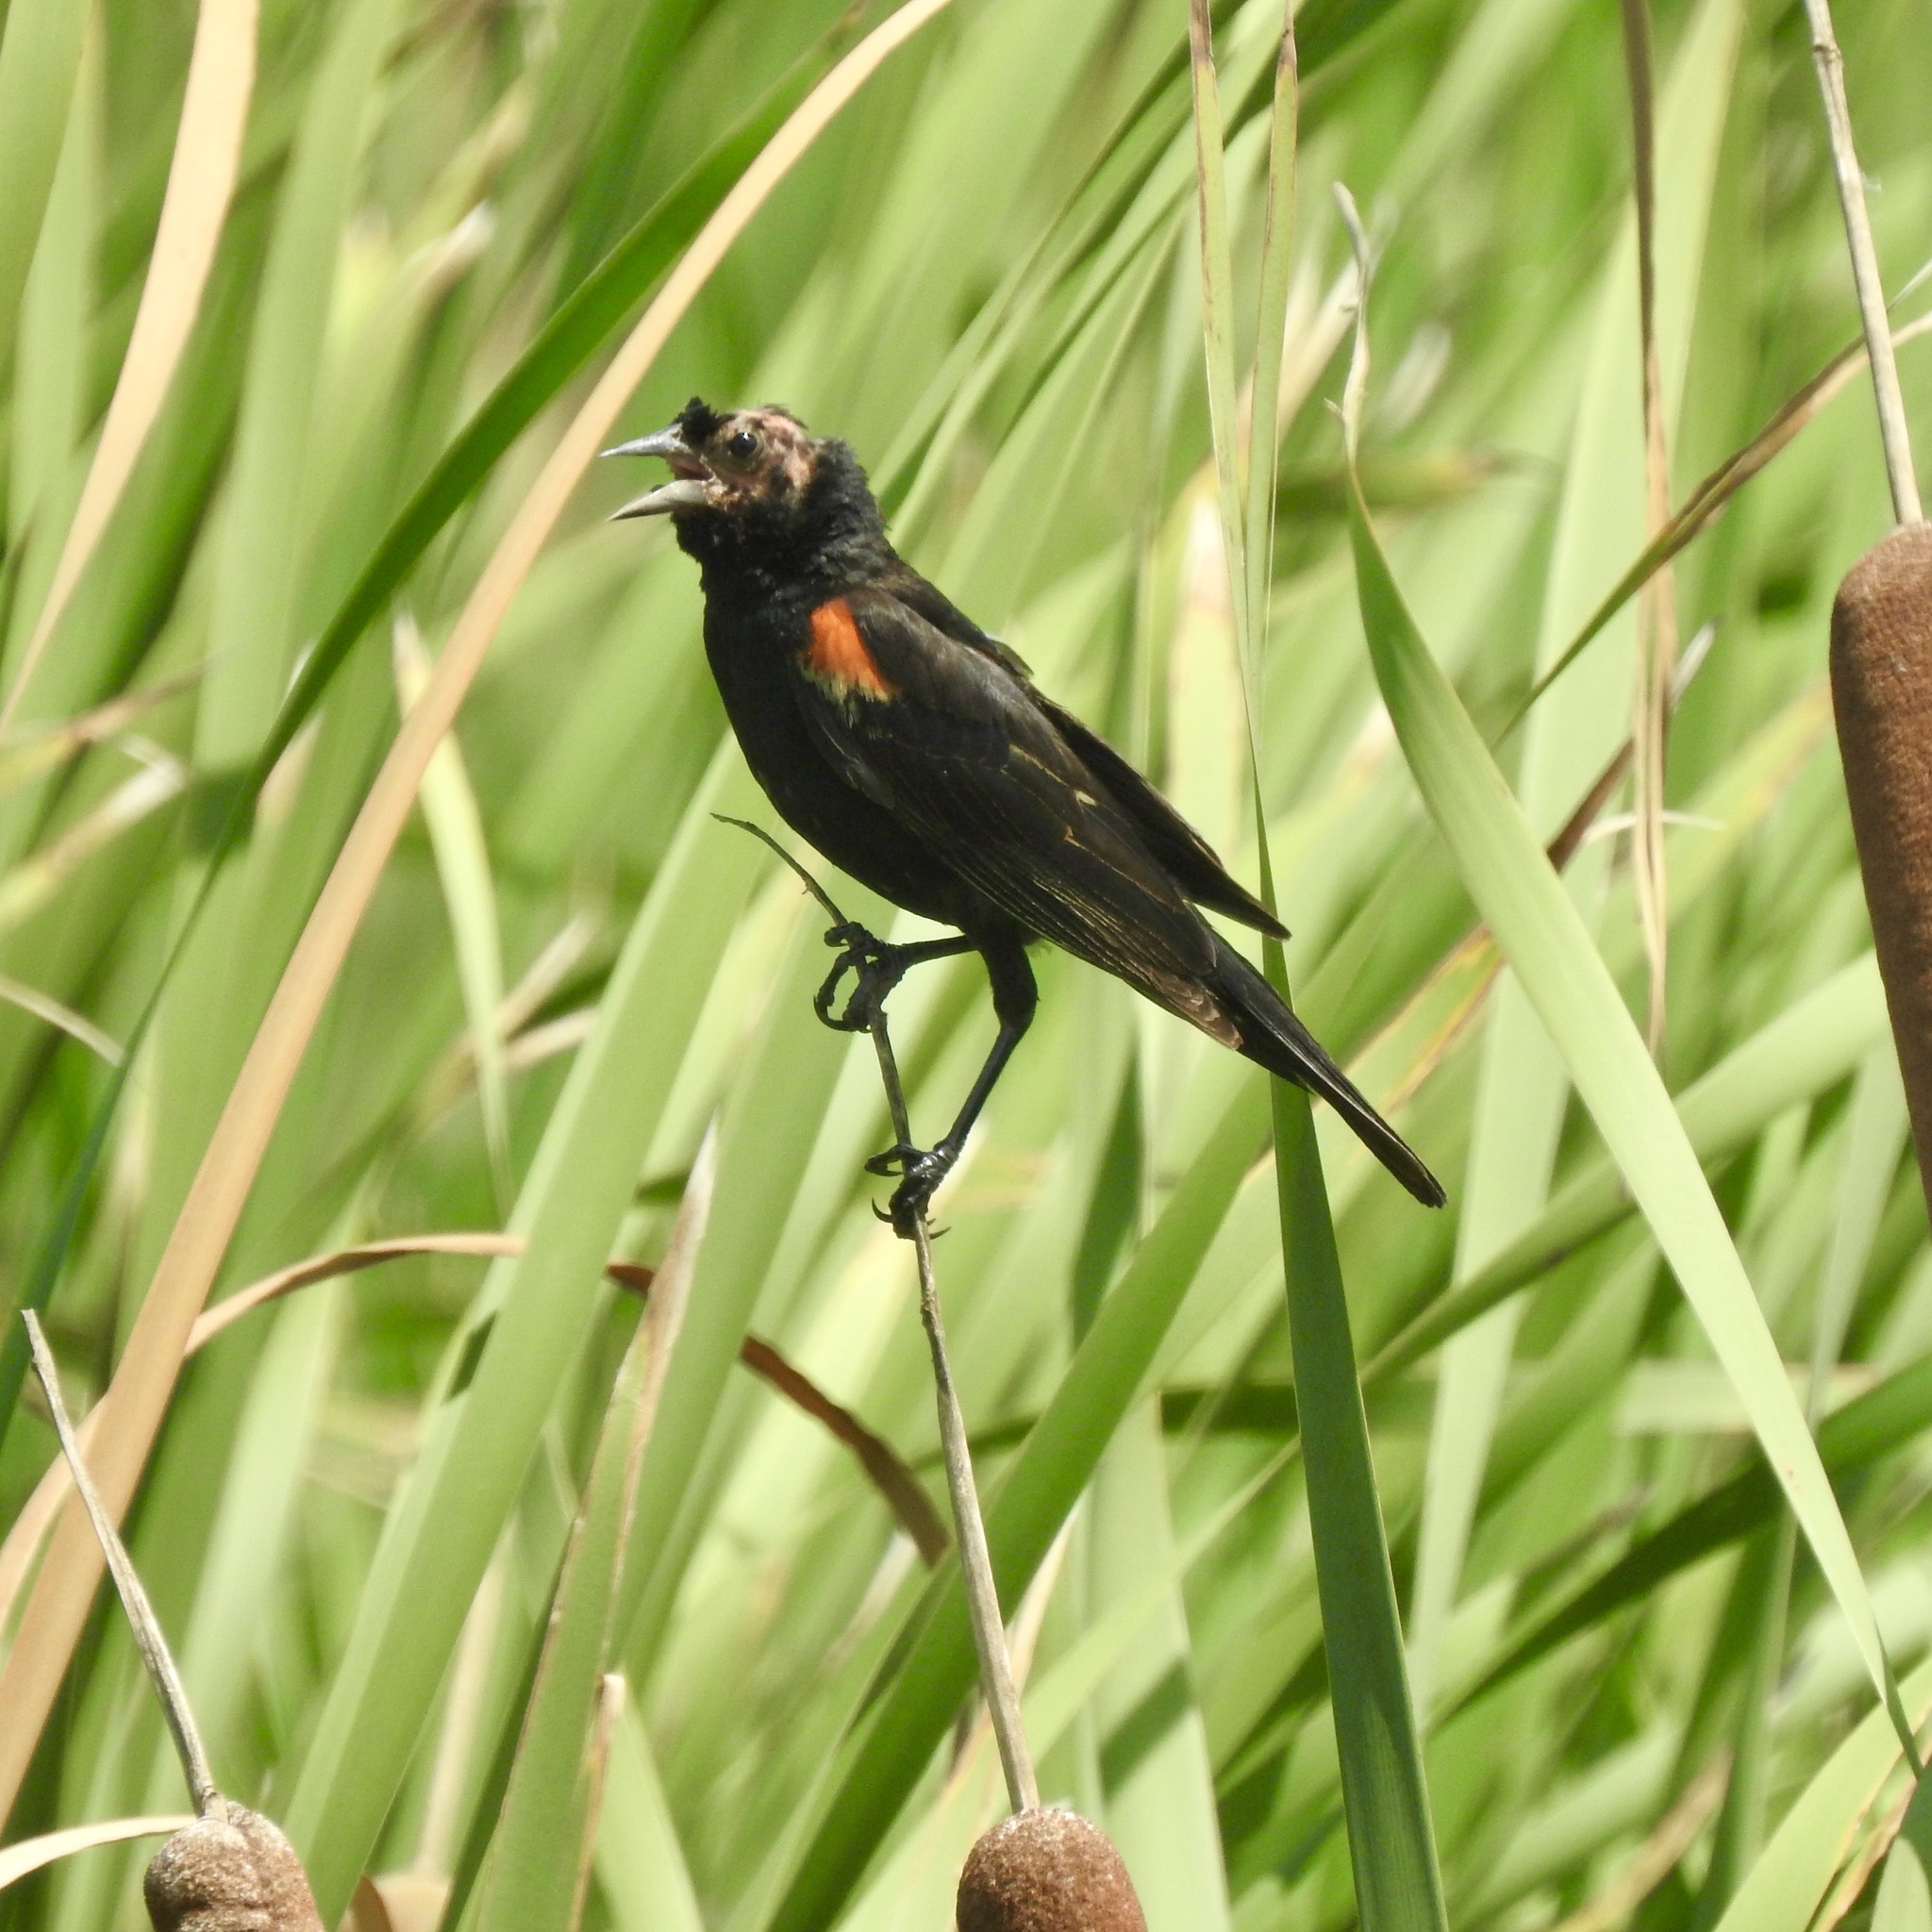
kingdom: Animalia
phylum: Chordata
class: Aves
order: Passeriformes
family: Icteridae
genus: Agelaius
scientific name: Agelaius phoeniceus
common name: Red-winged blackbird
